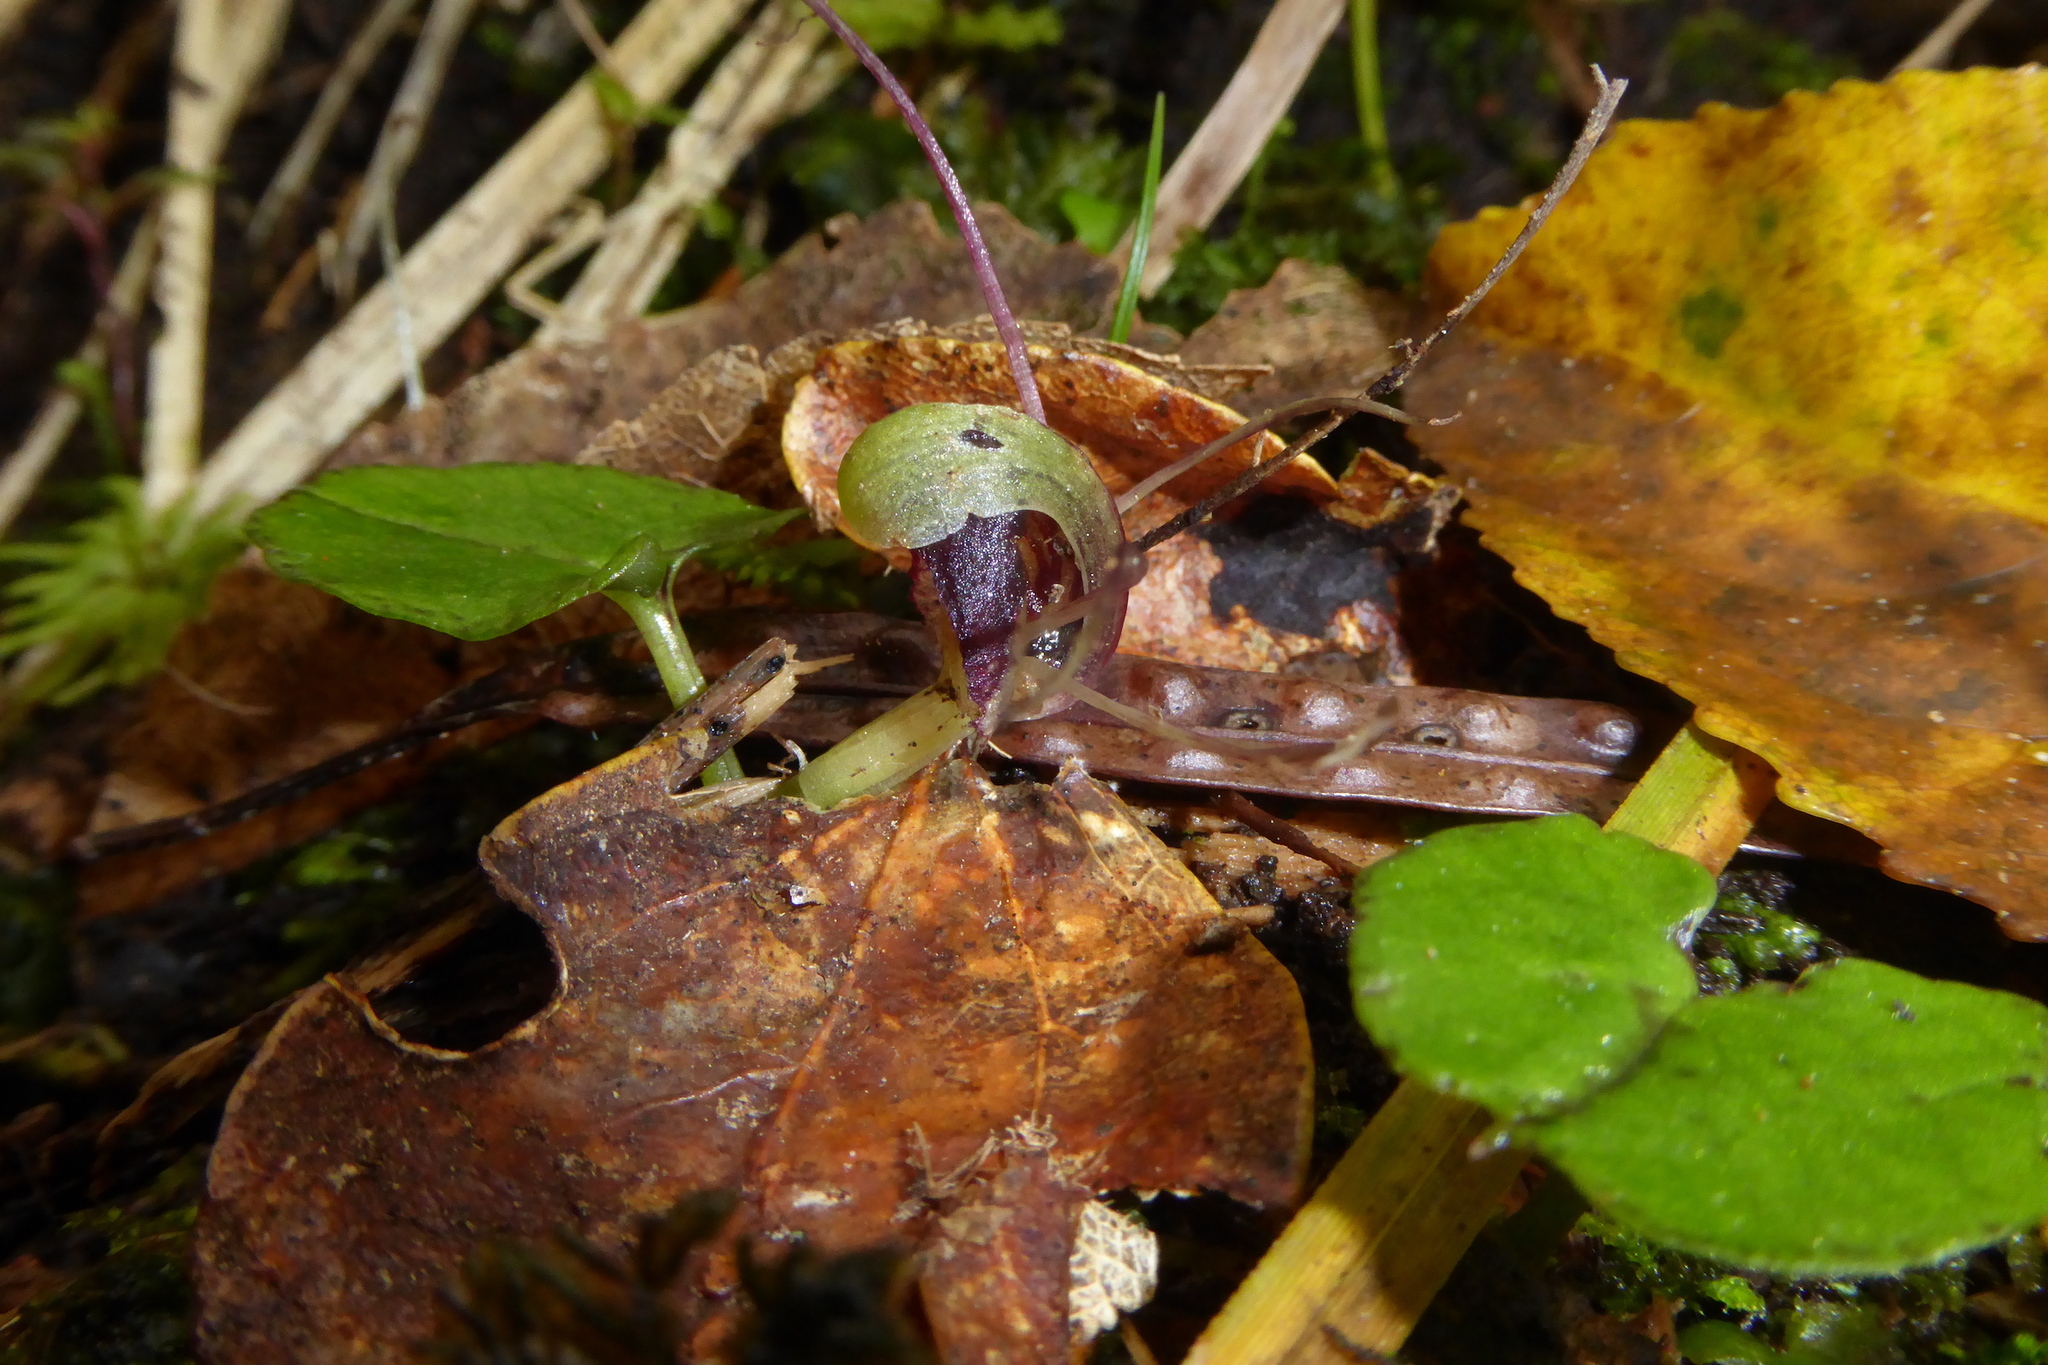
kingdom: Plantae
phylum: Tracheophyta
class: Liliopsida
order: Asparagales
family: Orchidaceae
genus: Corybas
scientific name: Corybas vitreus
